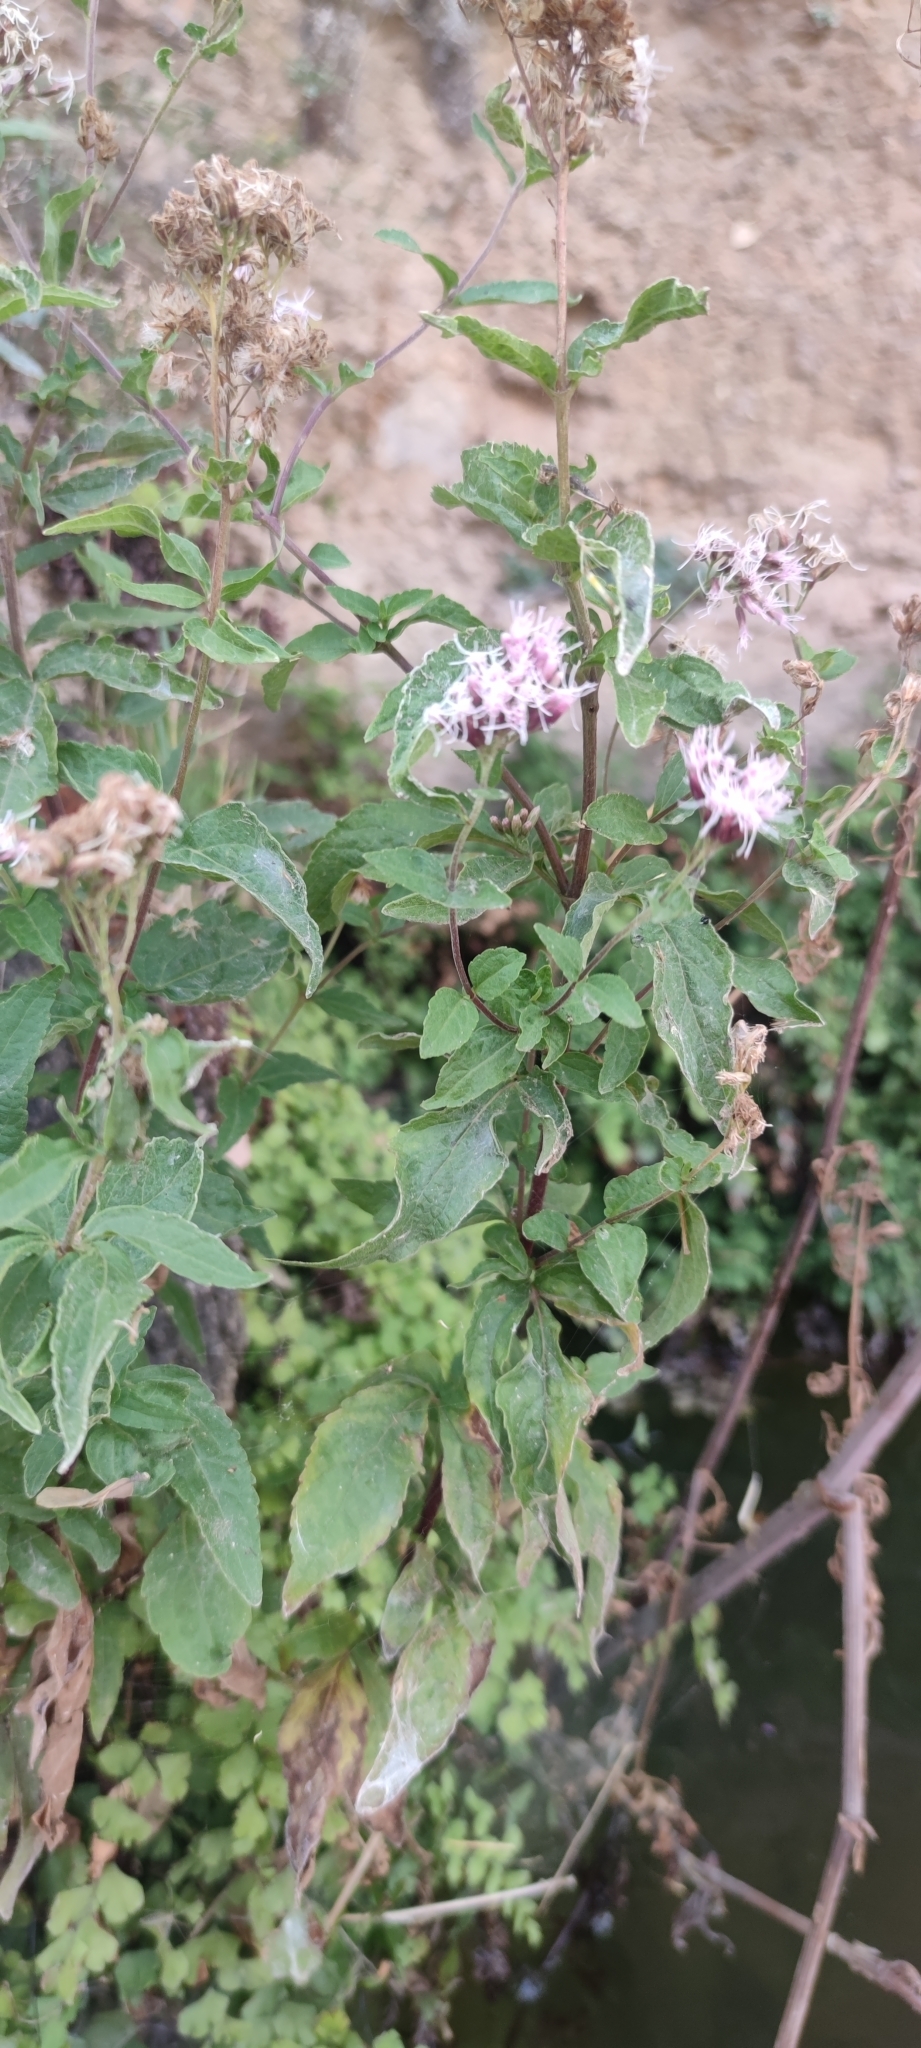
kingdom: Plantae
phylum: Tracheophyta
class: Magnoliopsida
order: Asterales
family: Asteraceae
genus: Eupatorium
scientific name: Eupatorium cannabinum
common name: Hemp-agrimony
